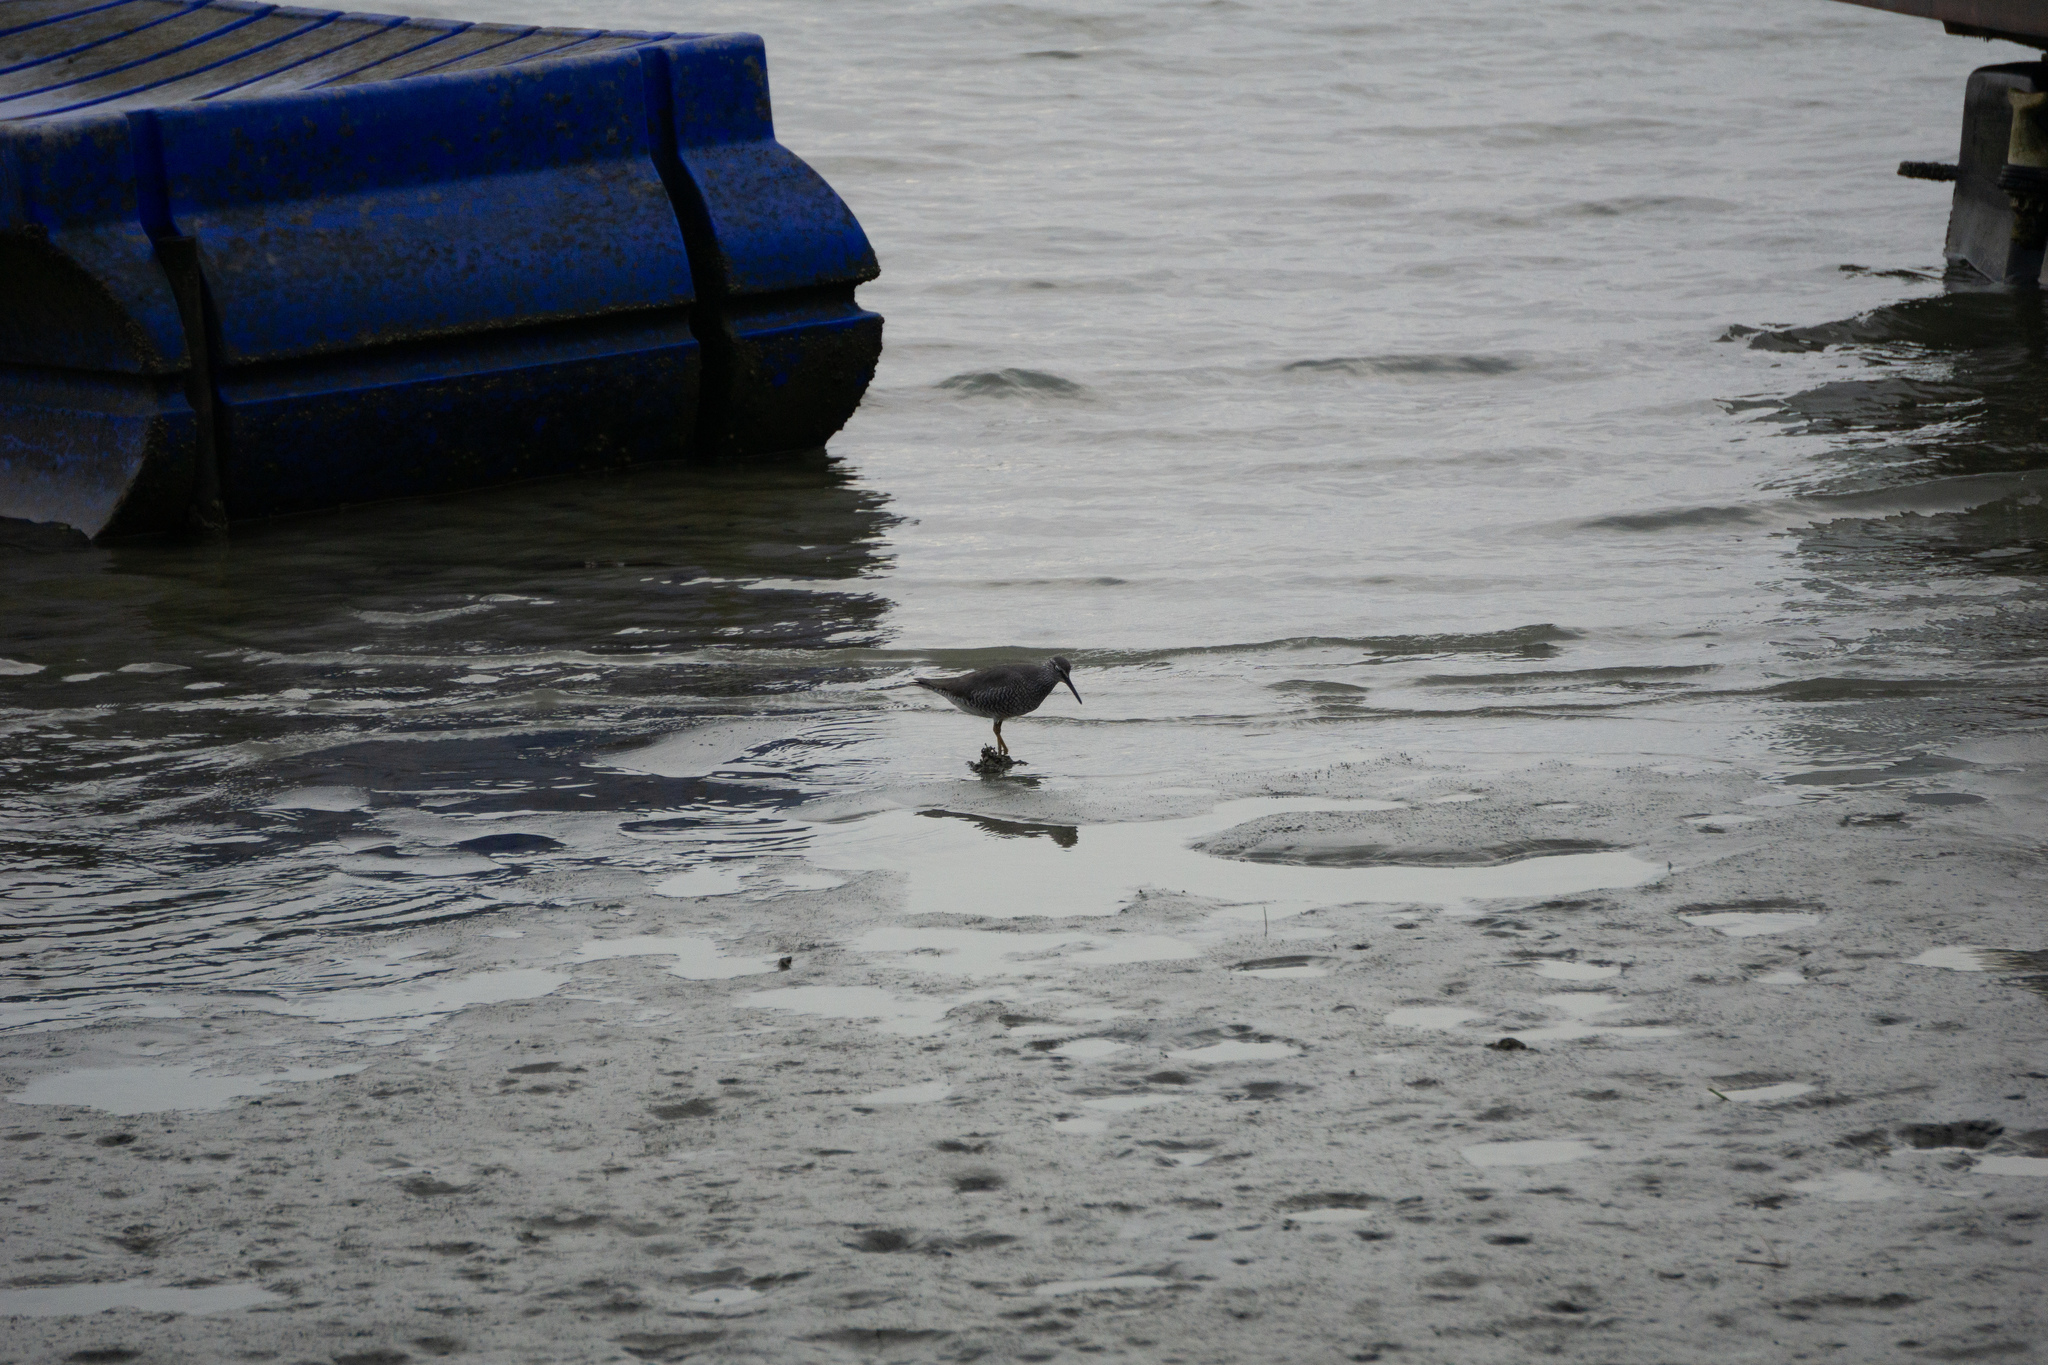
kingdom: Animalia
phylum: Chordata
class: Aves
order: Charadriiformes
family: Scolopacidae
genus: Tringa
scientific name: Tringa incana
